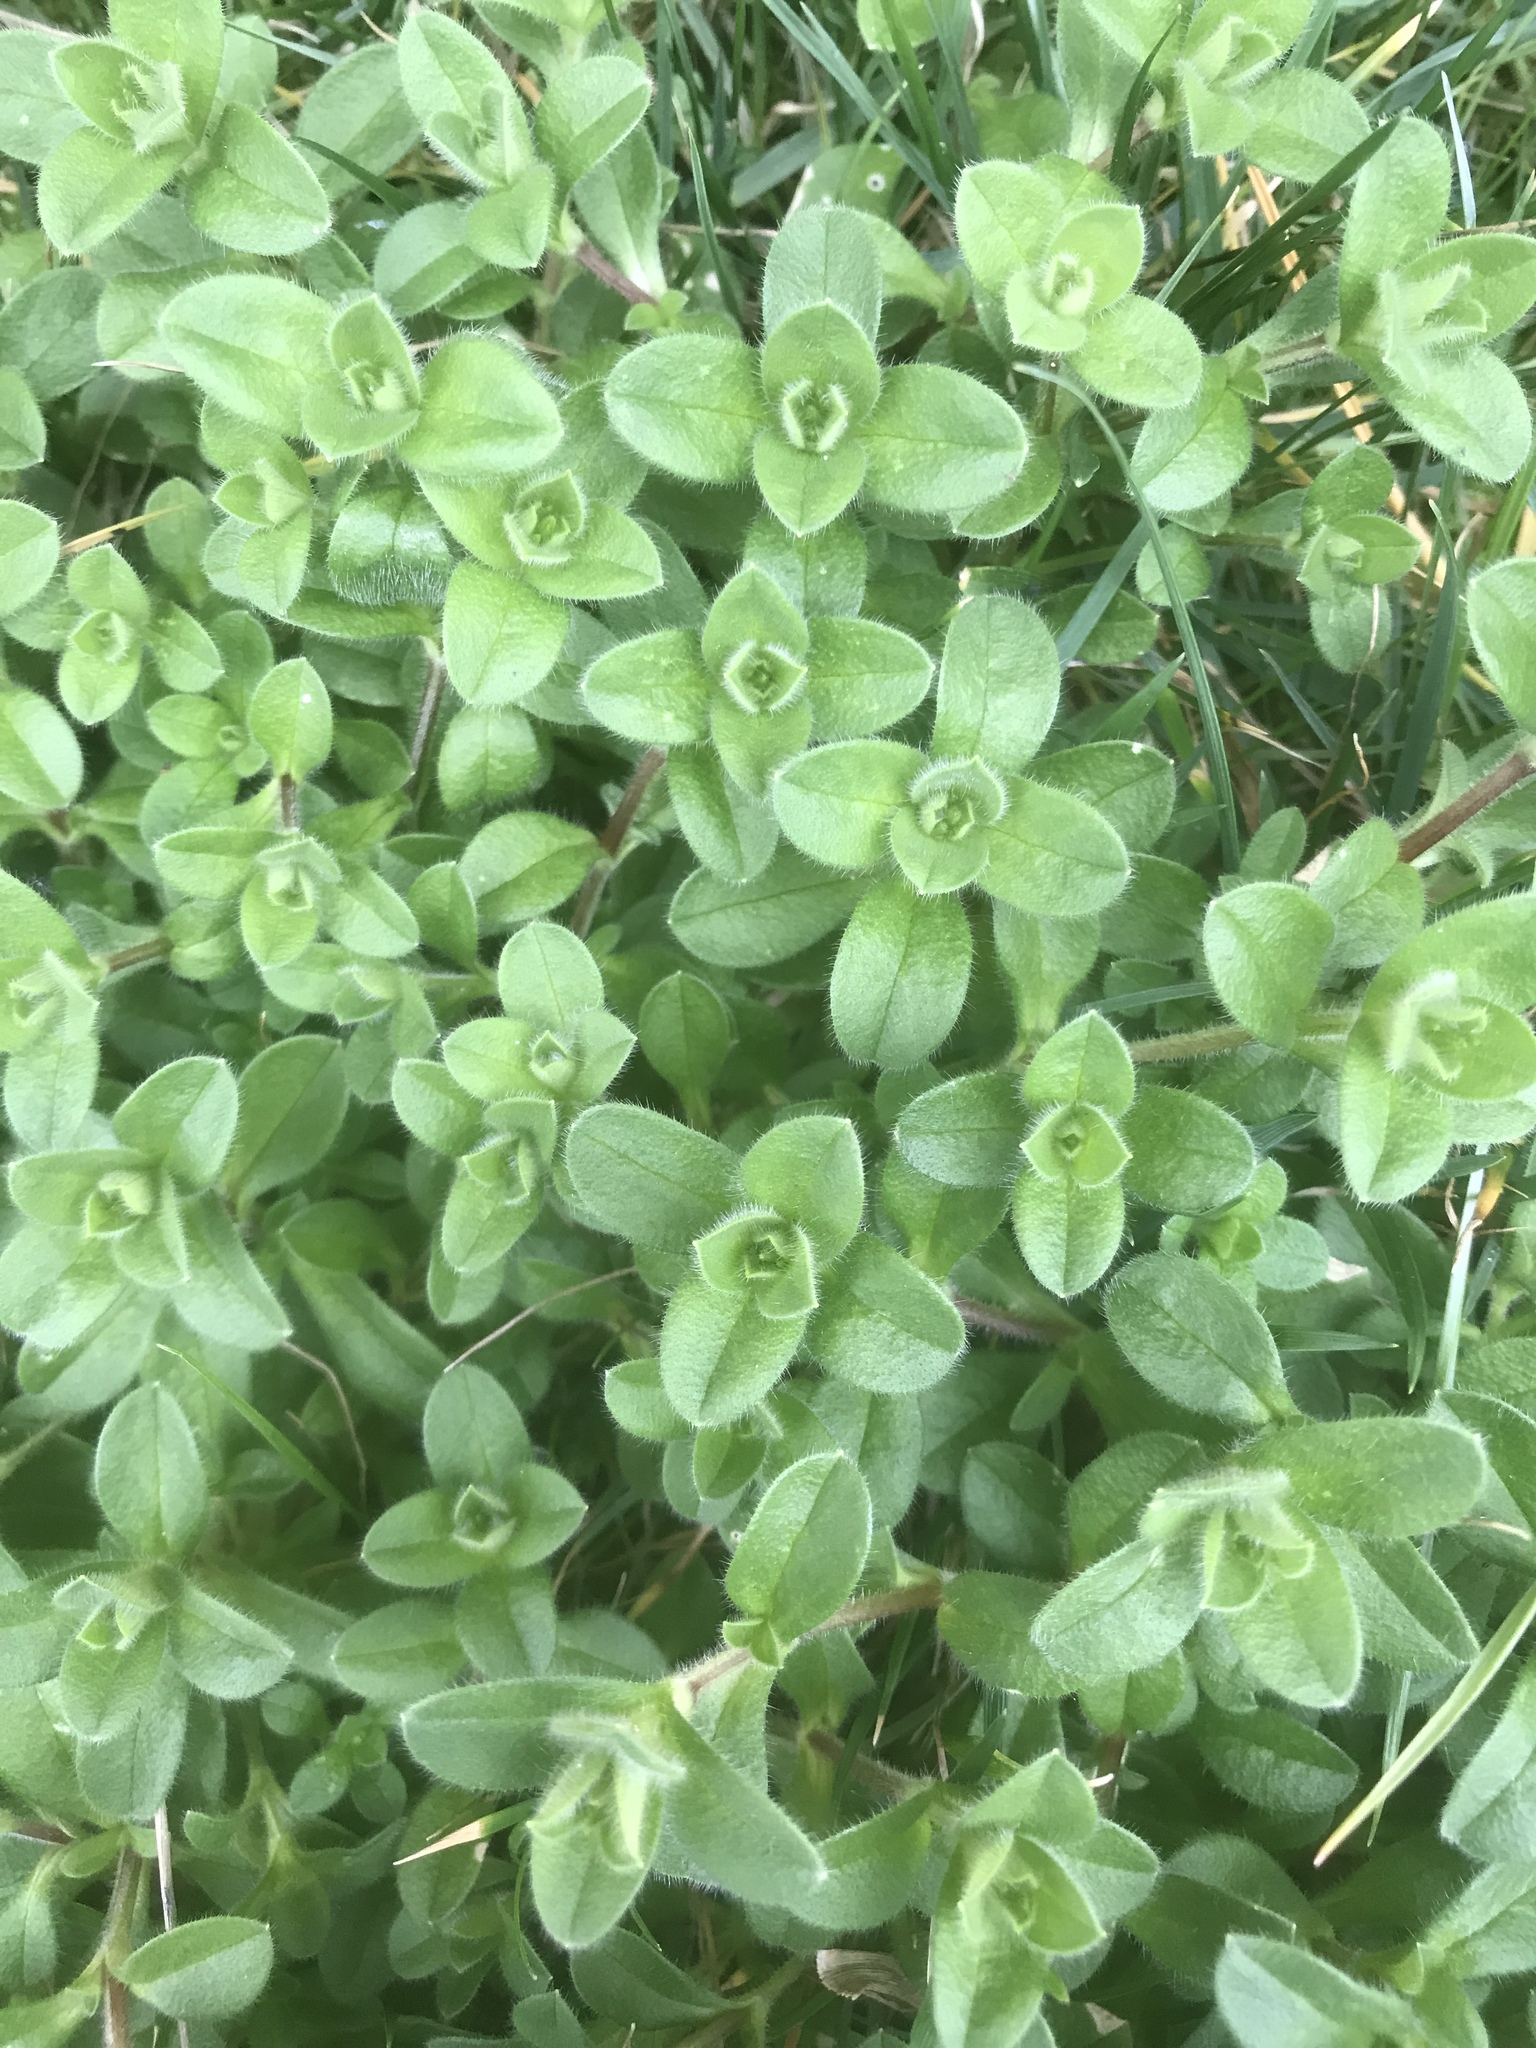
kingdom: Plantae
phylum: Tracheophyta
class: Magnoliopsida
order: Caryophyllales
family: Caryophyllaceae
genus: Cerastium
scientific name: Cerastium glomeratum
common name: Sticky chickweed
